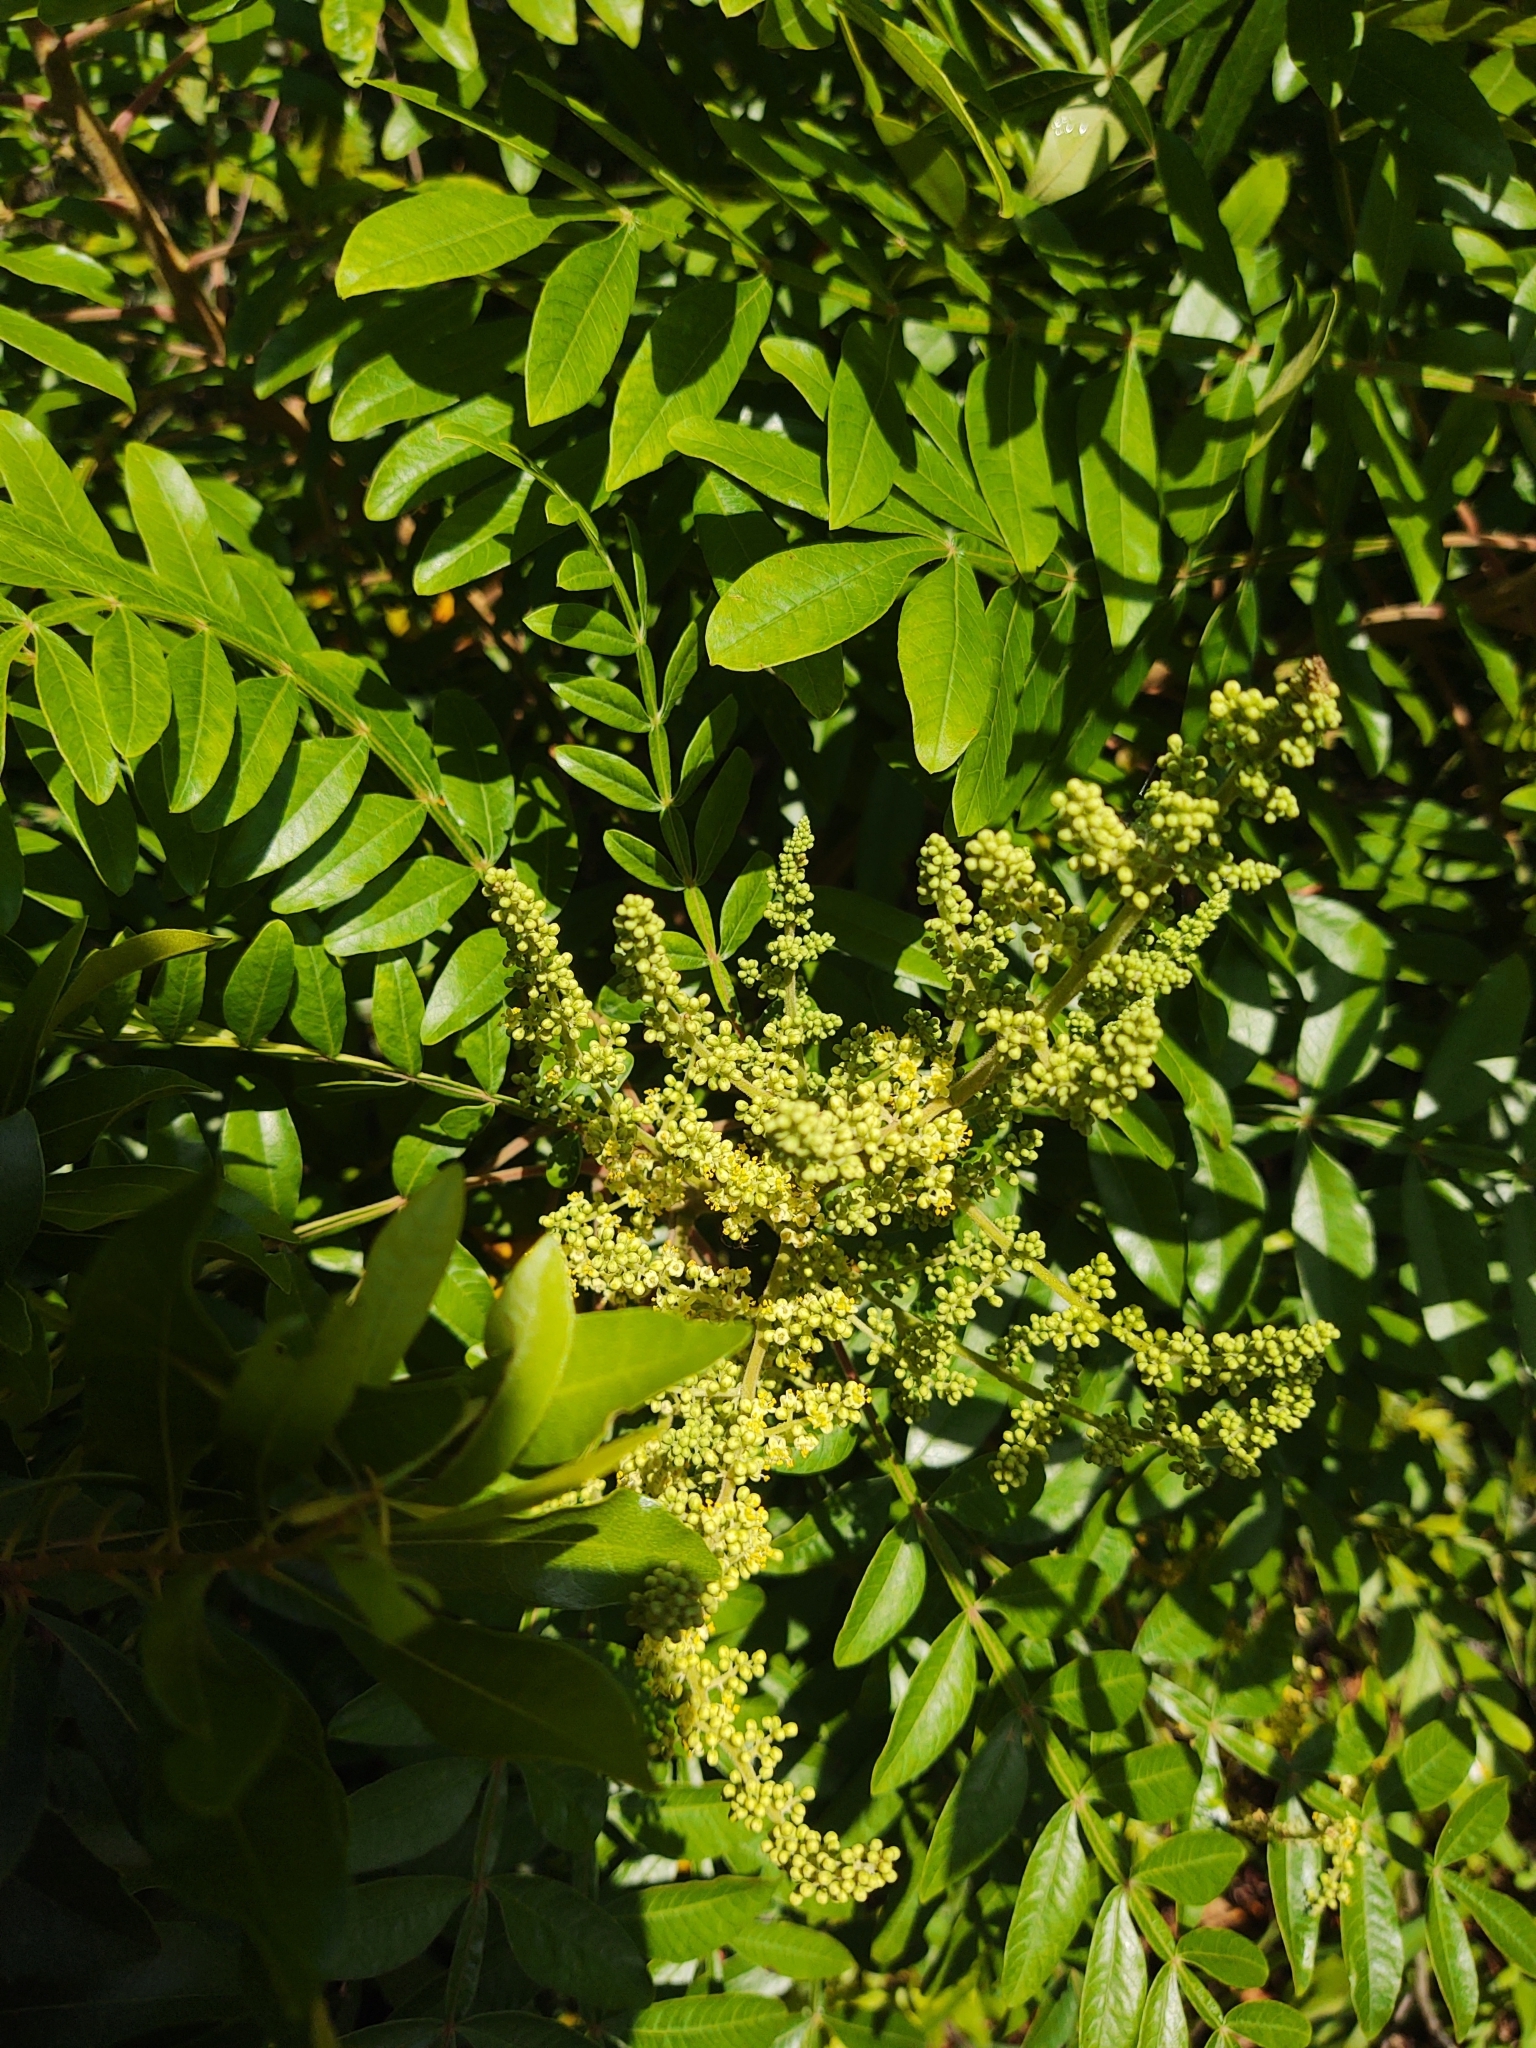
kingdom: Plantae
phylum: Tracheophyta
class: Magnoliopsida
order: Sapindales
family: Anacardiaceae
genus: Rhus
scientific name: Rhus copallina
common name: Shining sumac
